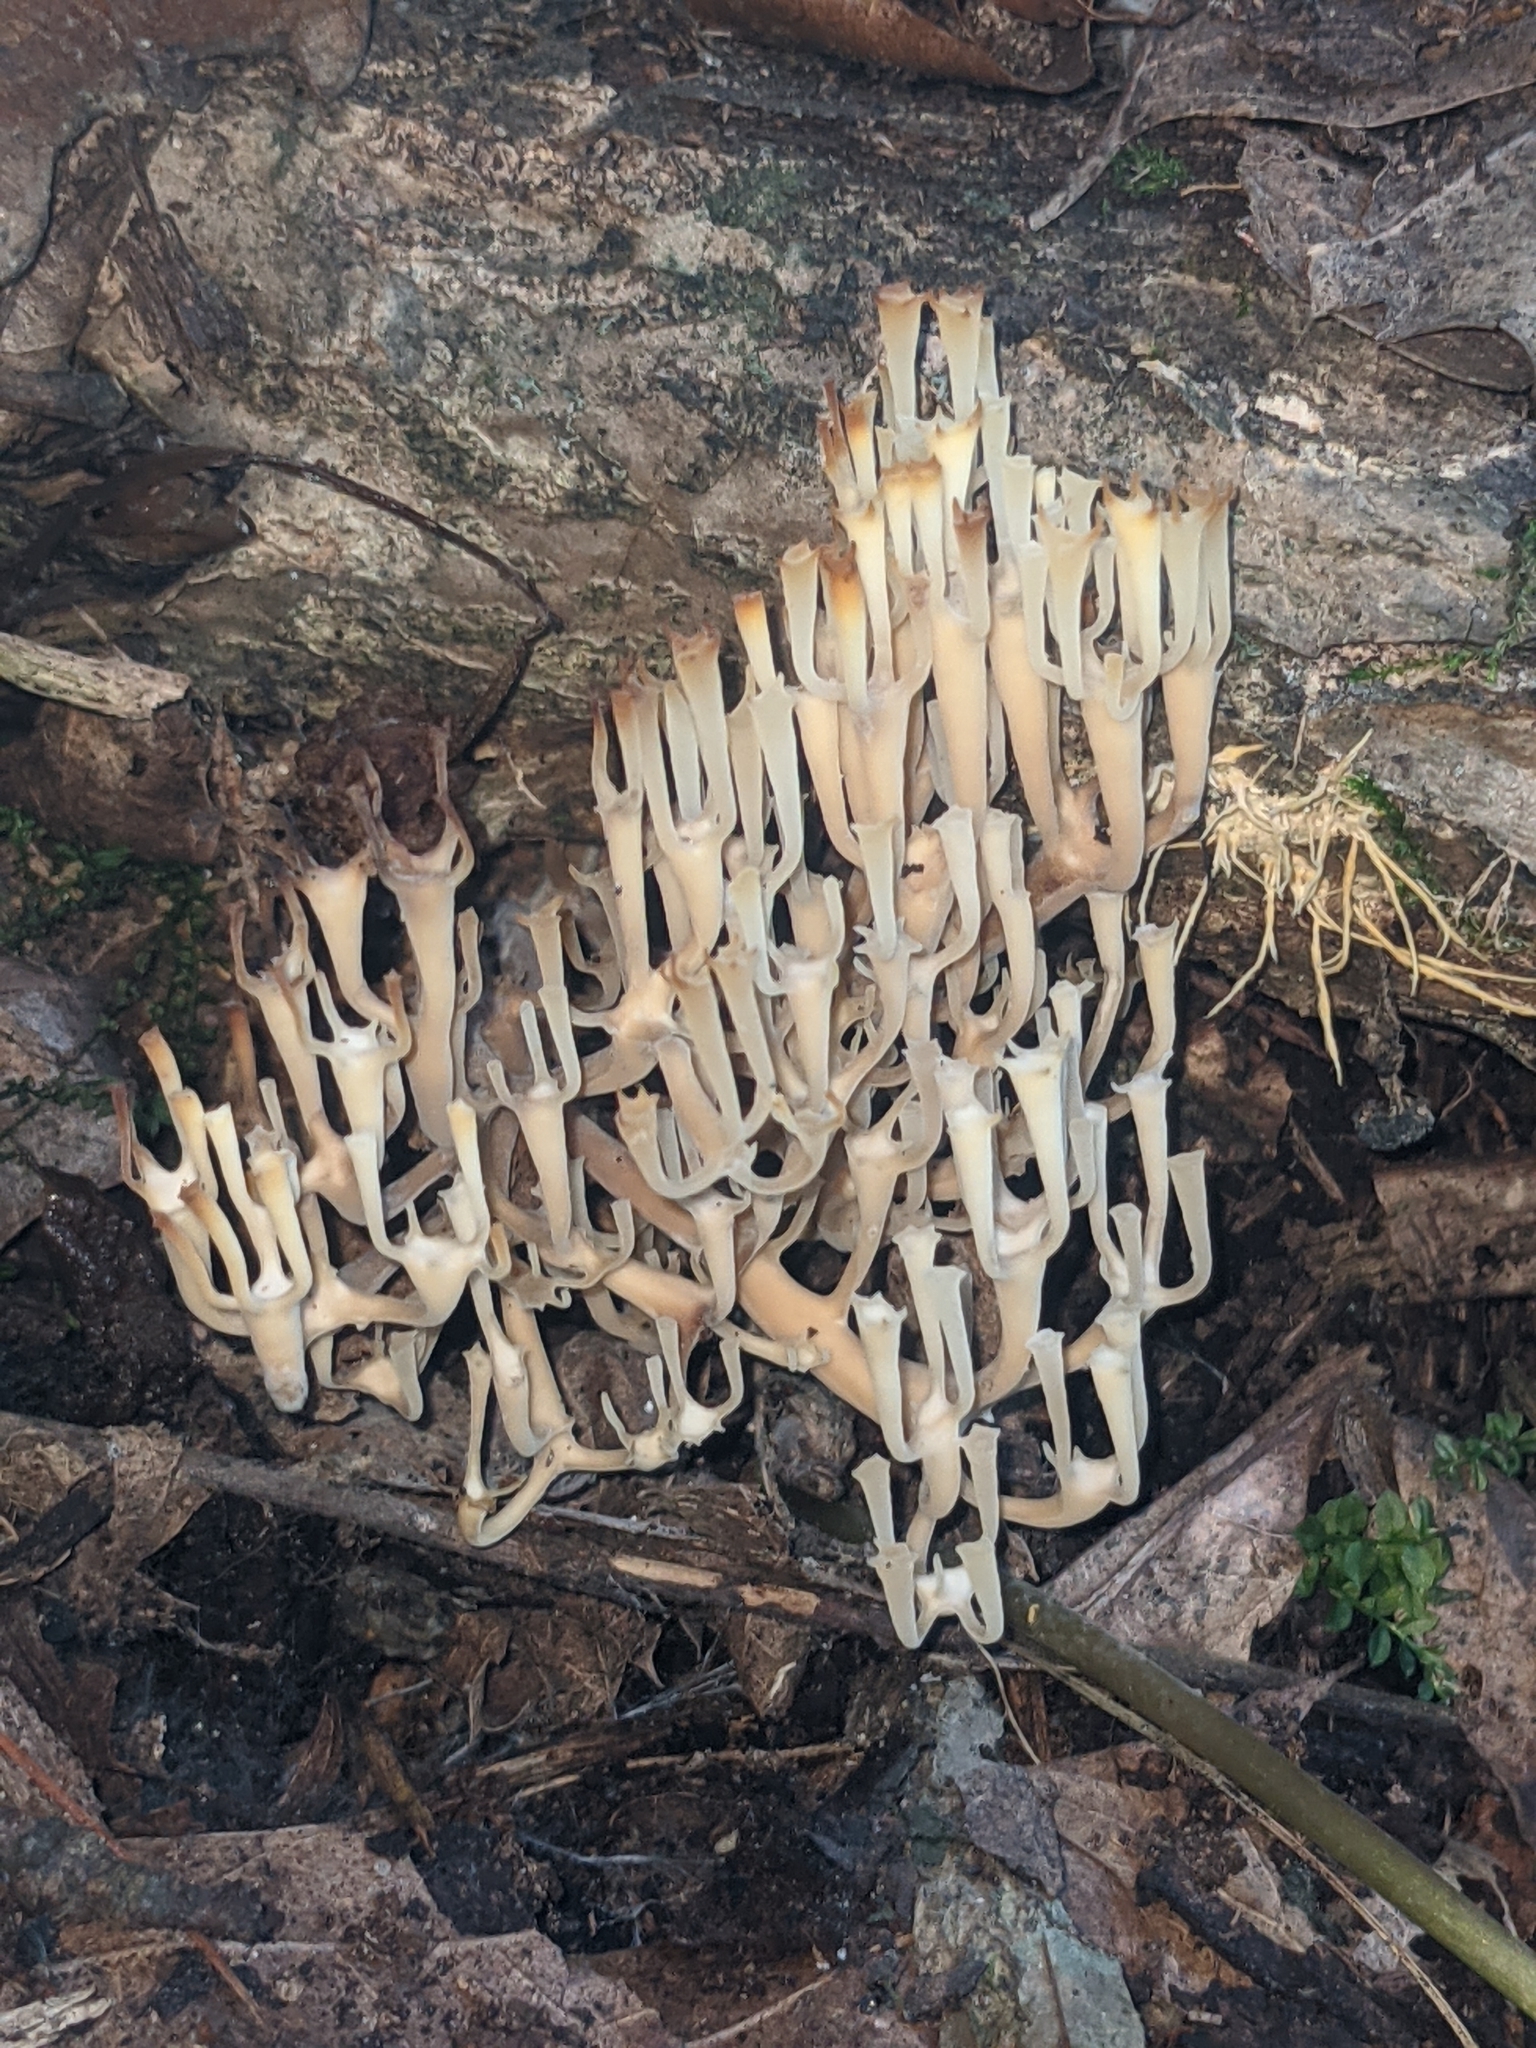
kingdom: Fungi
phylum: Basidiomycota
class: Agaricomycetes
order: Russulales
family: Auriscalpiaceae
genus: Artomyces
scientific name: Artomyces pyxidatus
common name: Crown-tipped coral fungus
